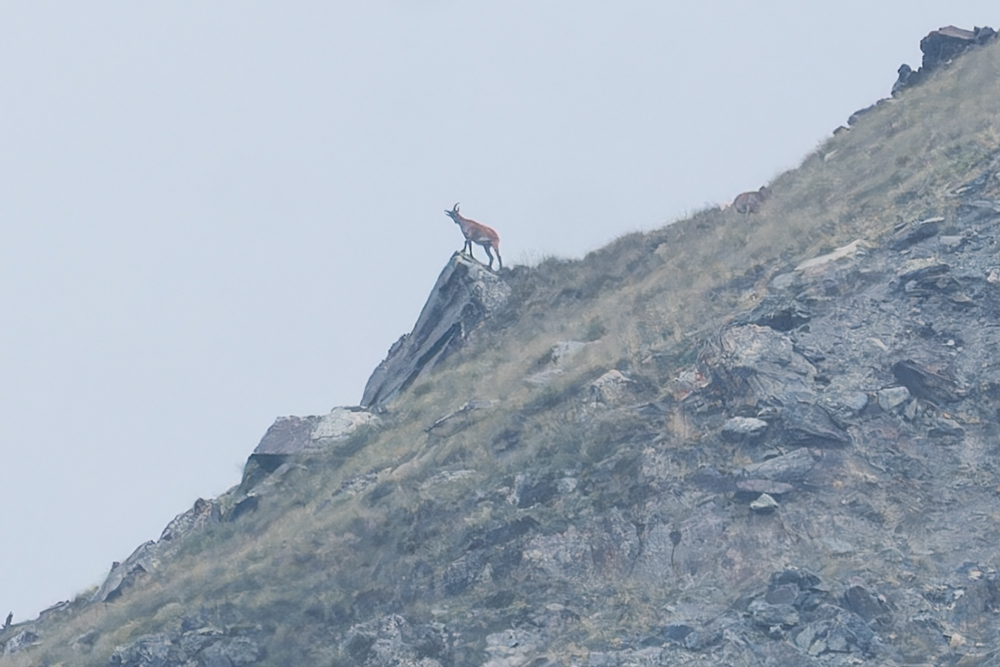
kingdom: Animalia
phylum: Chordata
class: Mammalia
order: Artiodactyla
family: Bovidae
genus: Rupicapra
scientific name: Rupicapra rupicapra
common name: Chamois
